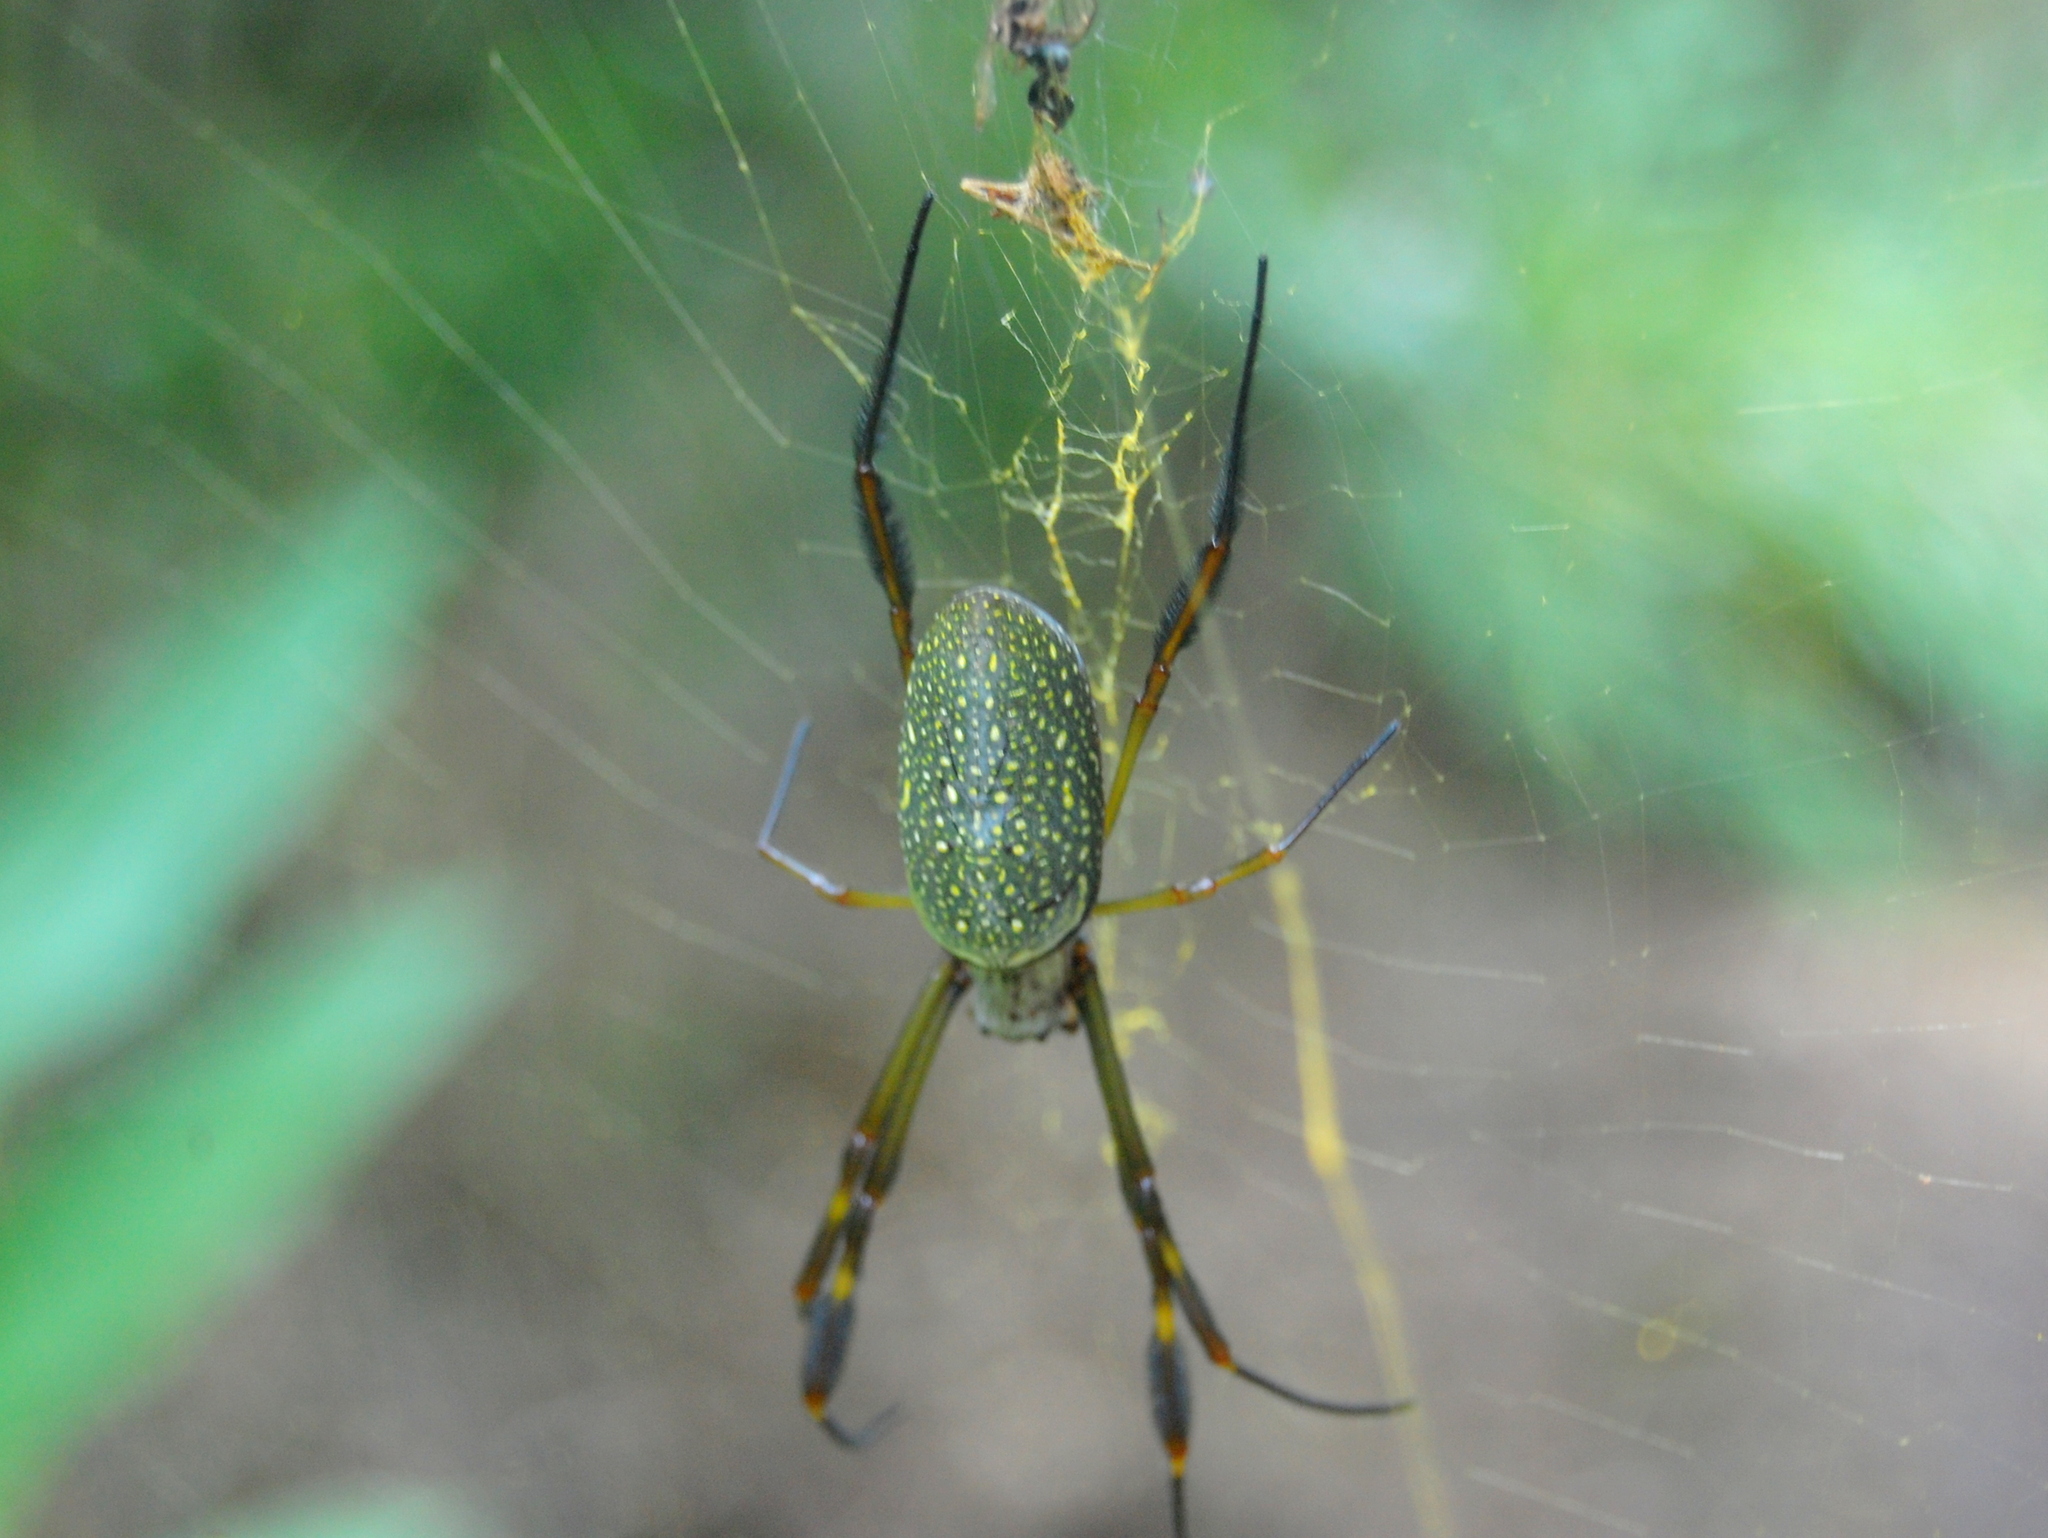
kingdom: Animalia
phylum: Arthropoda
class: Arachnida
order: Araneae
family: Araneidae
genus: Trichonephila
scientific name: Trichonephila clavipes
